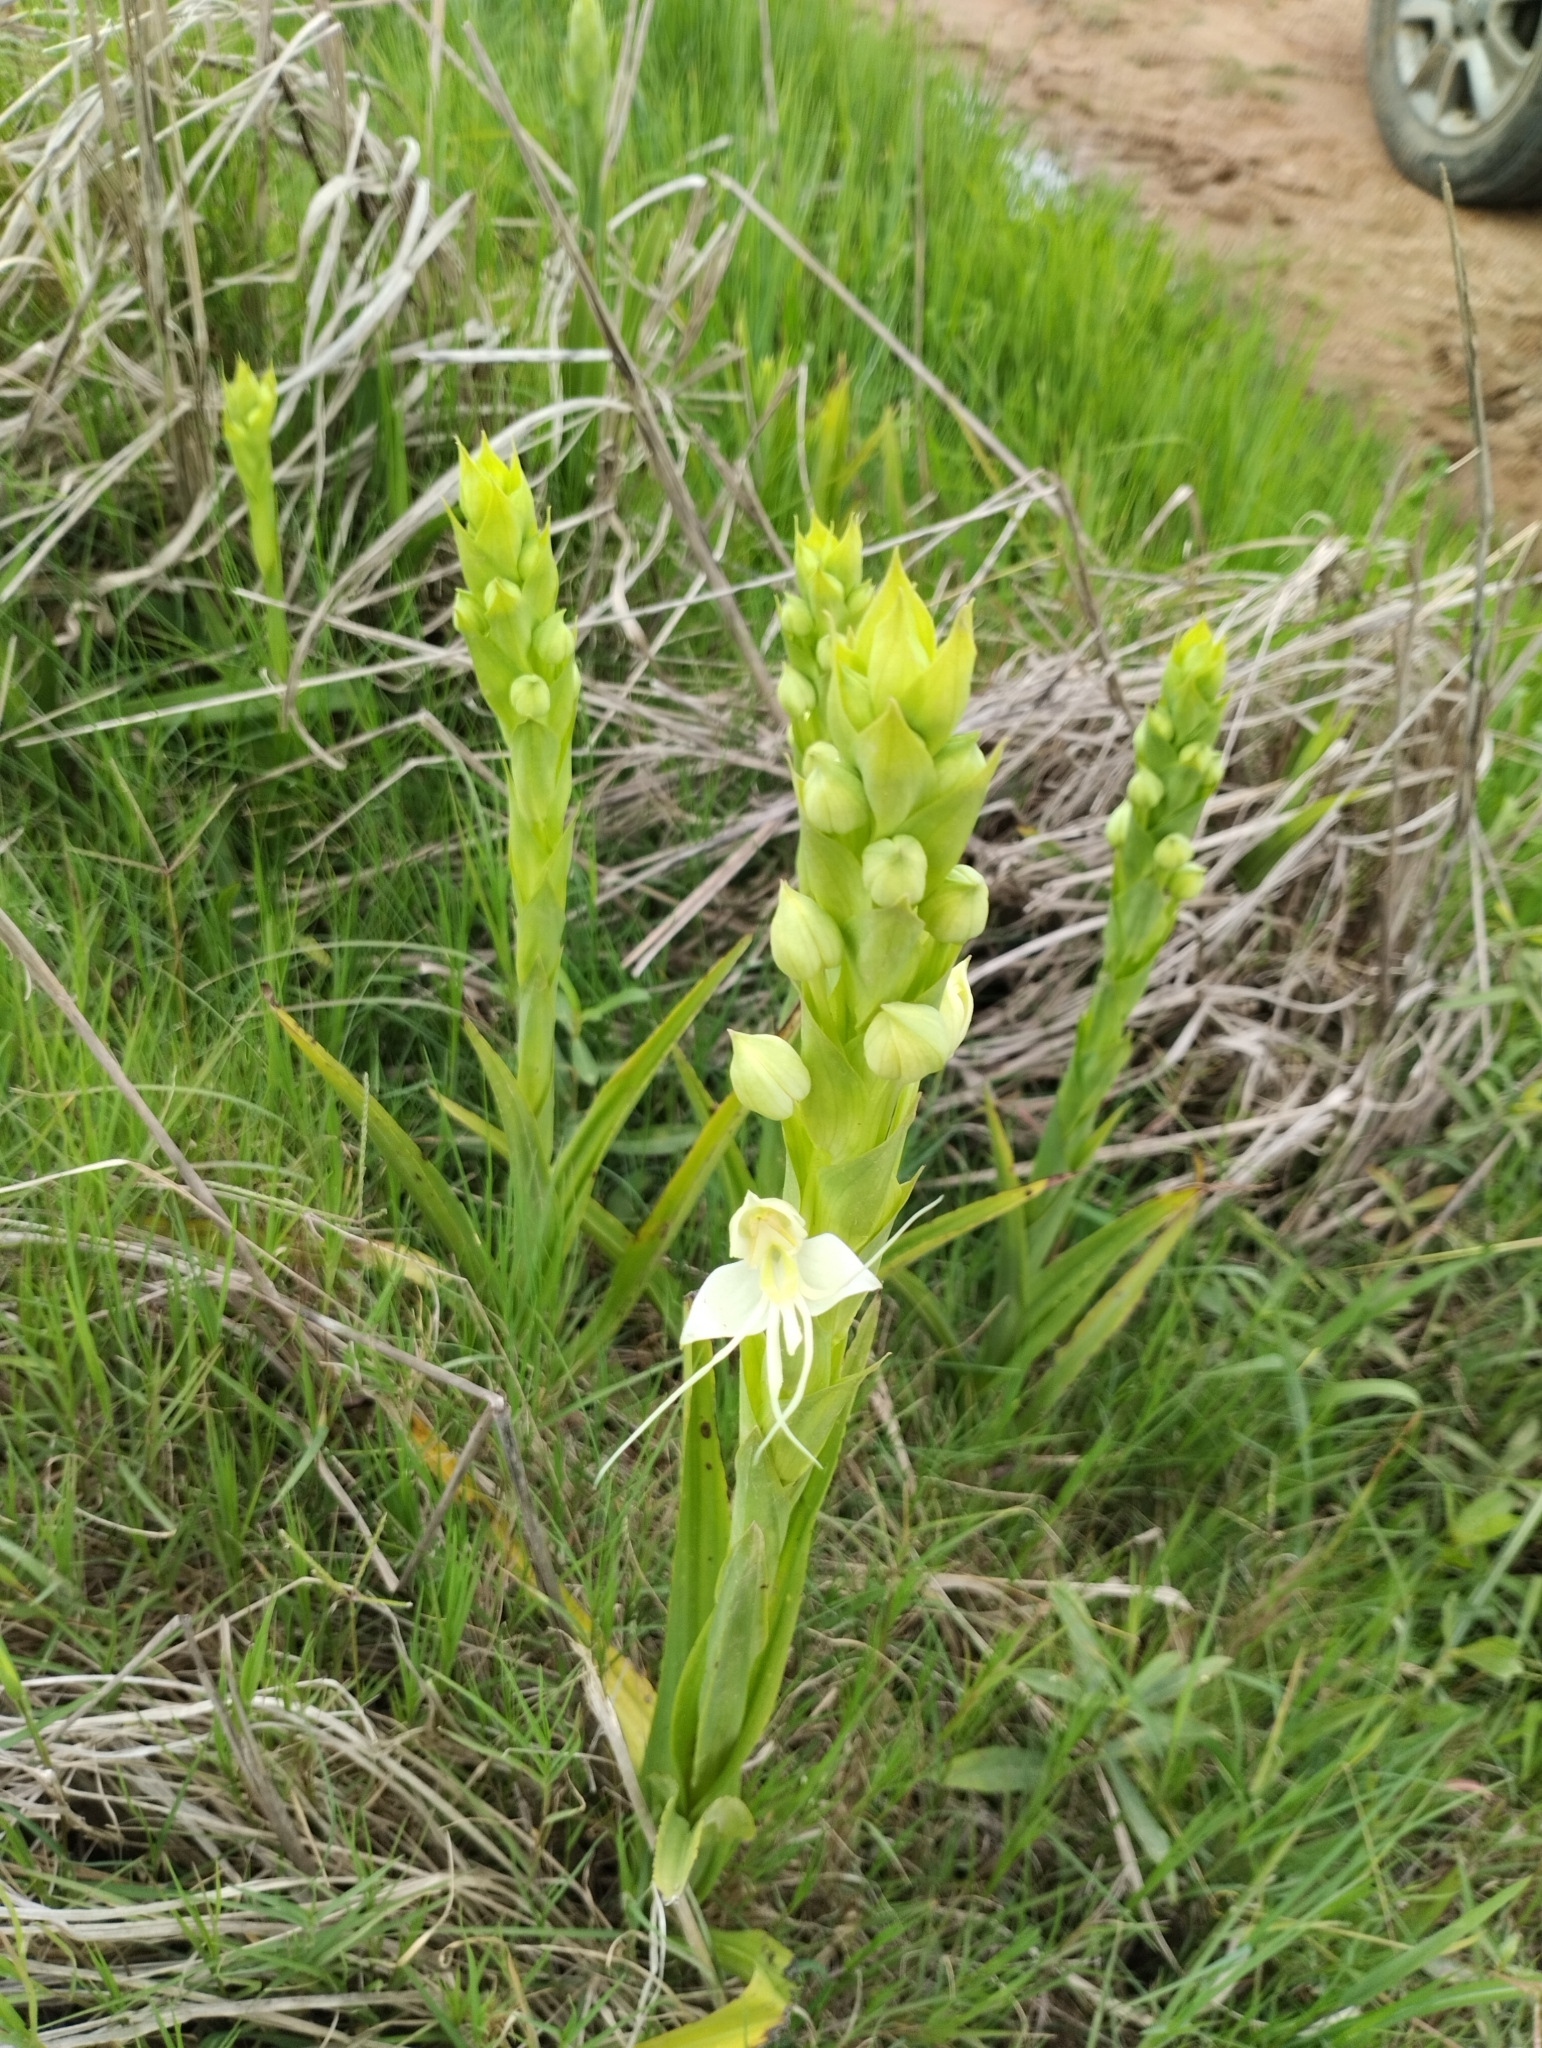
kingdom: Plantae
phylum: Tracheophyta
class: Liliopsida
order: Asparagales
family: Orchidaceae
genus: Habenaria
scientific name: Habenaria gourlieana
